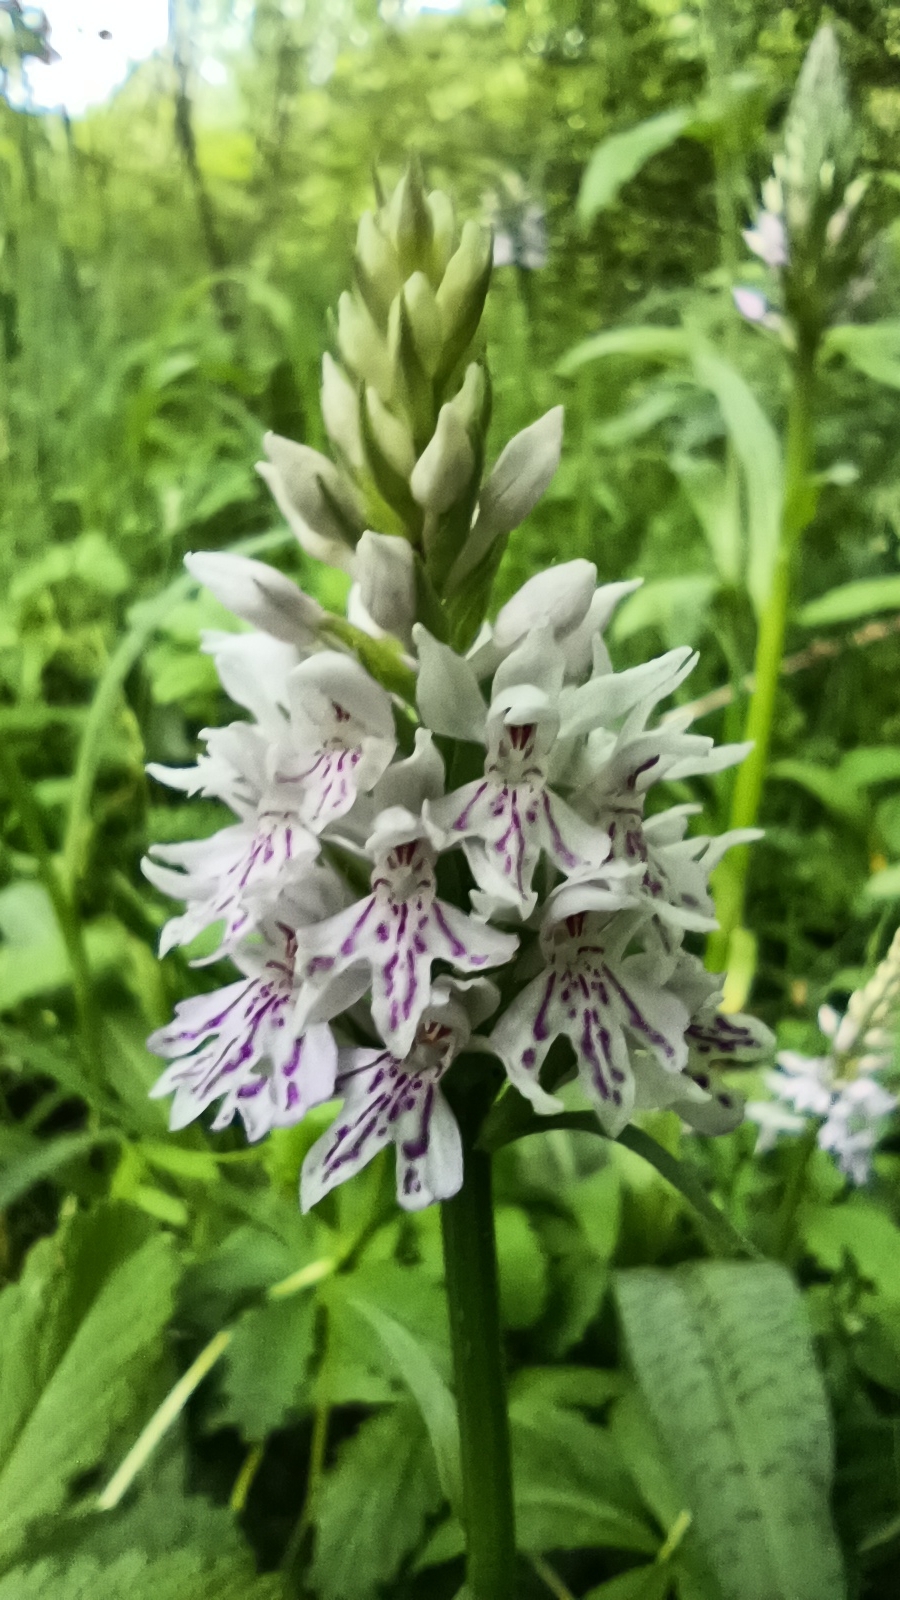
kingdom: Plantae
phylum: Tracheophyta
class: Liliopsida
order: Asparagales
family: Orchidaceae
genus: Dactylorhiza
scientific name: Dactylorhiza maculata
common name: Heath spotted-orchid
